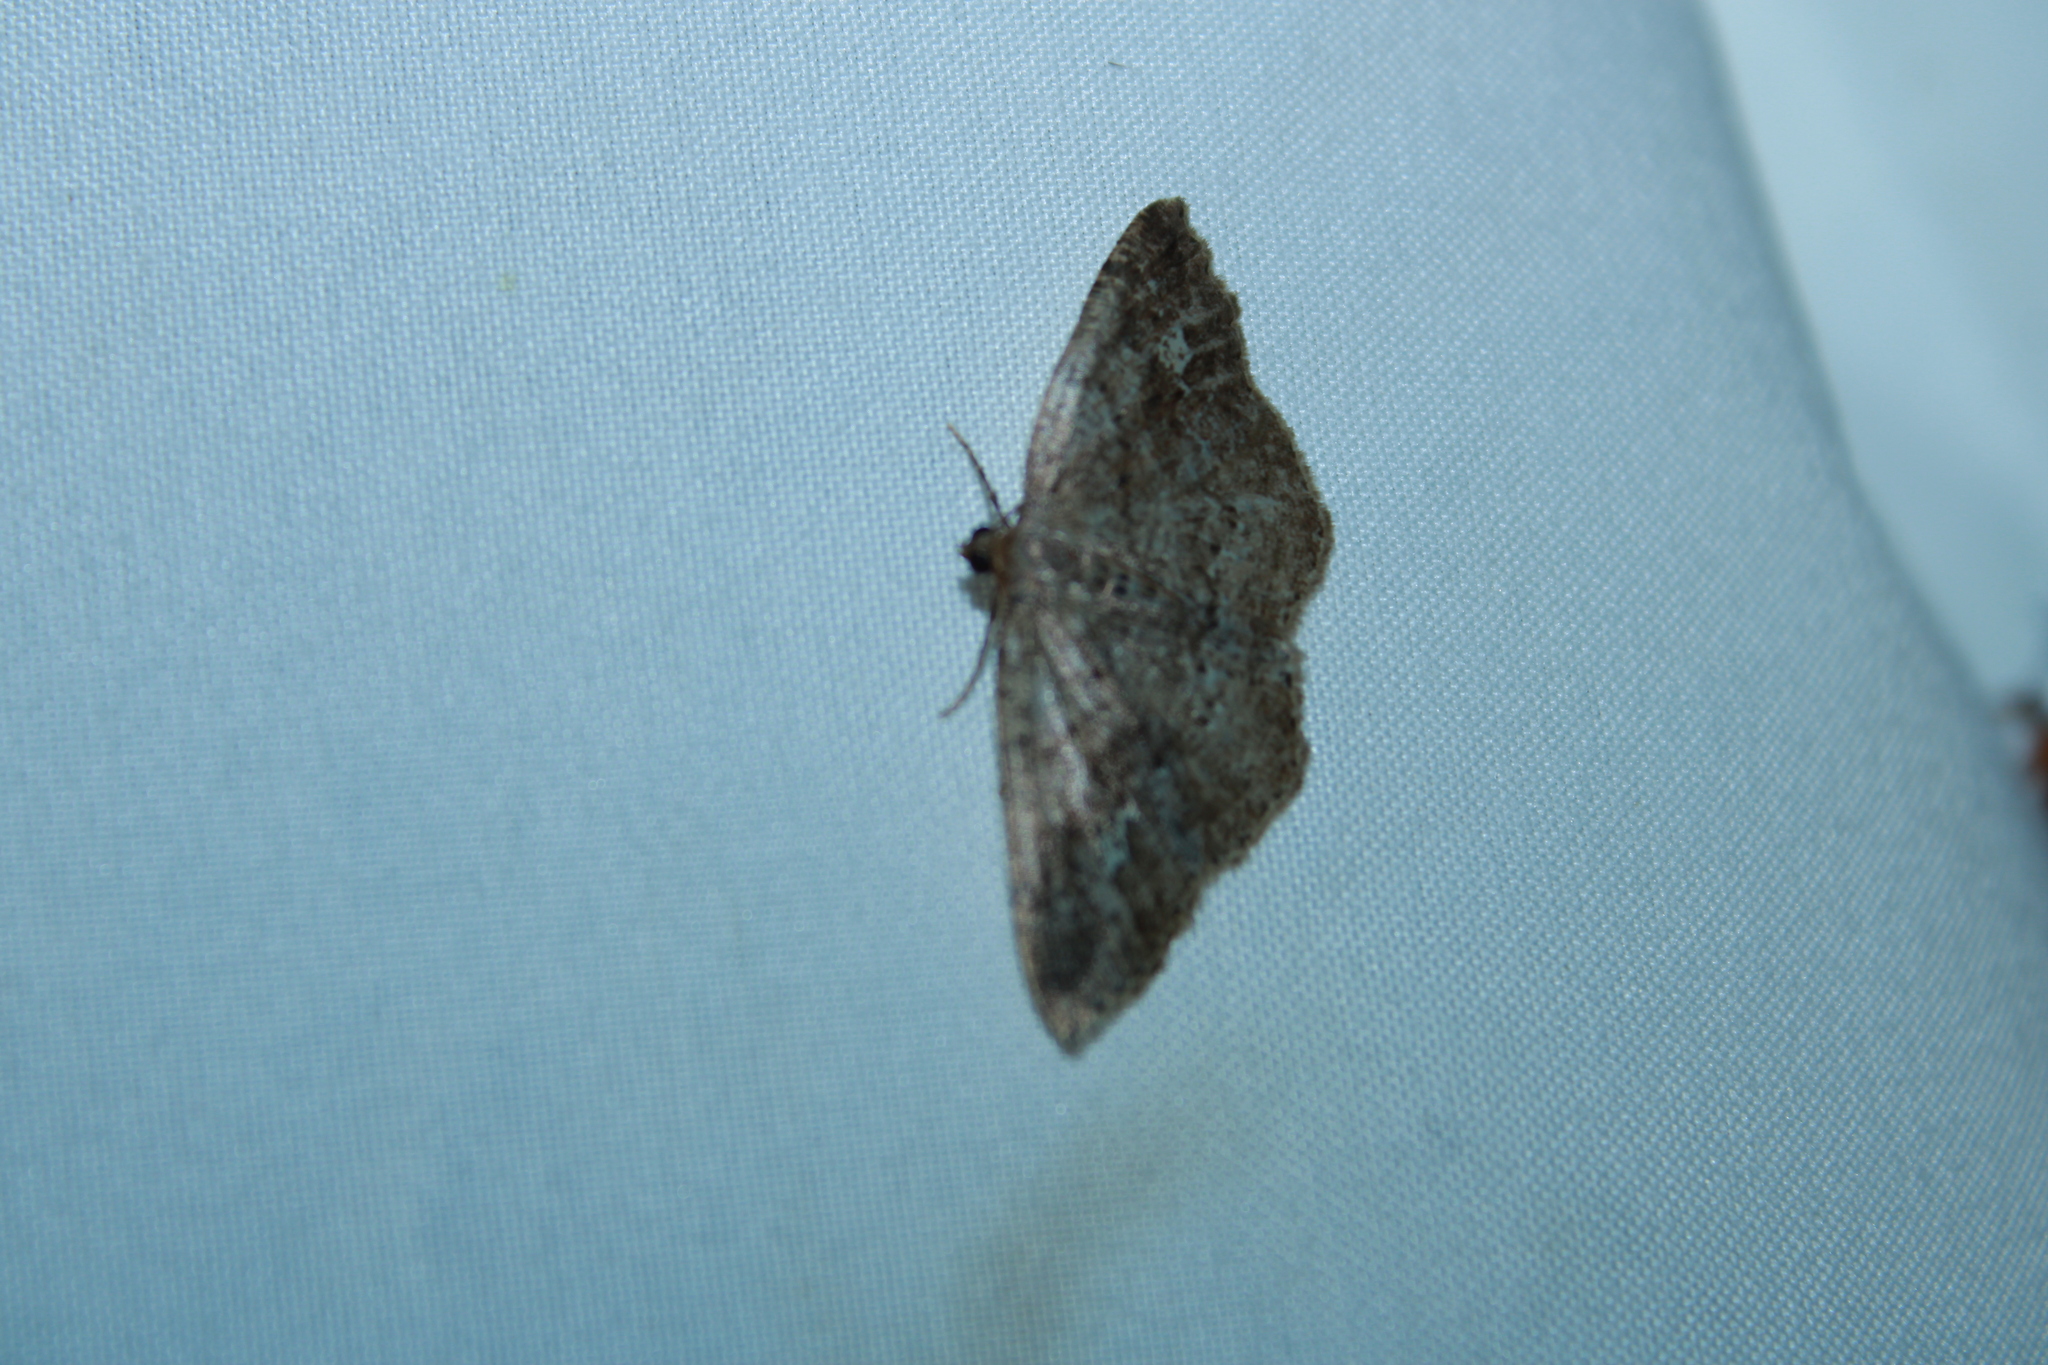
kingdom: Animalia
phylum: Arthropoda
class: Insecta
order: Lepidoptera
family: Geometridae
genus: Homochlodes
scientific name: Homochlodes fritillaria
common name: Pale homochlodes
